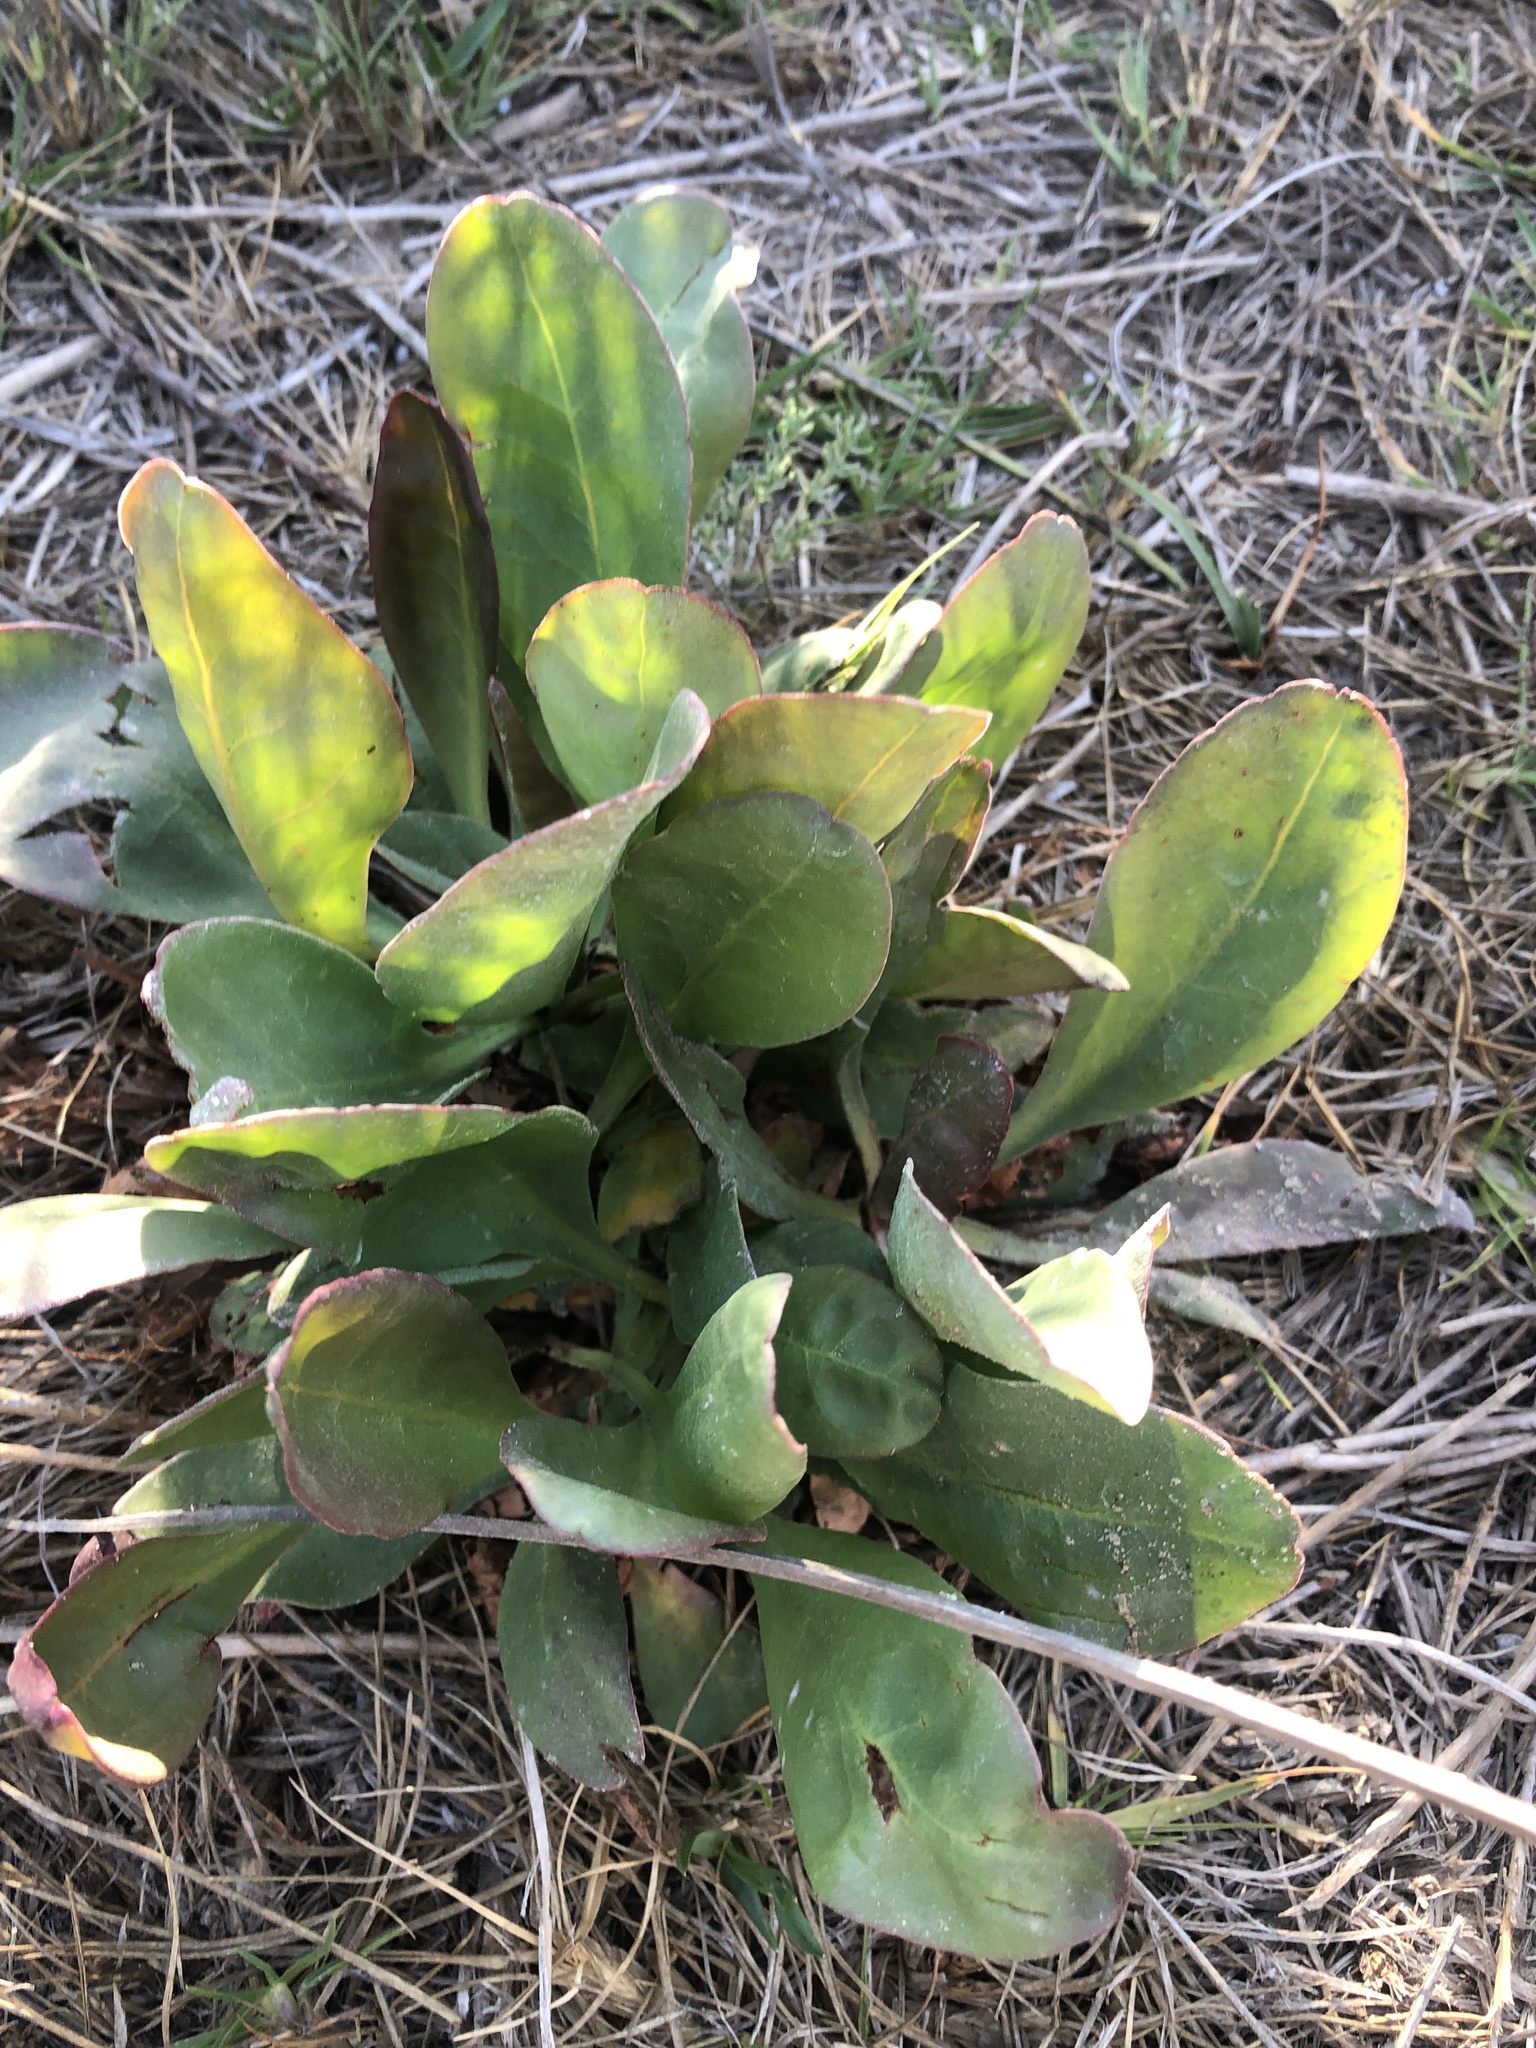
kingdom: Plantae
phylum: Tracheophyta
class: Magnoliopsida
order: Caryophyllales
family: Plumbaginaceae
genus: Limonium
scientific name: Limonium guaicuru
